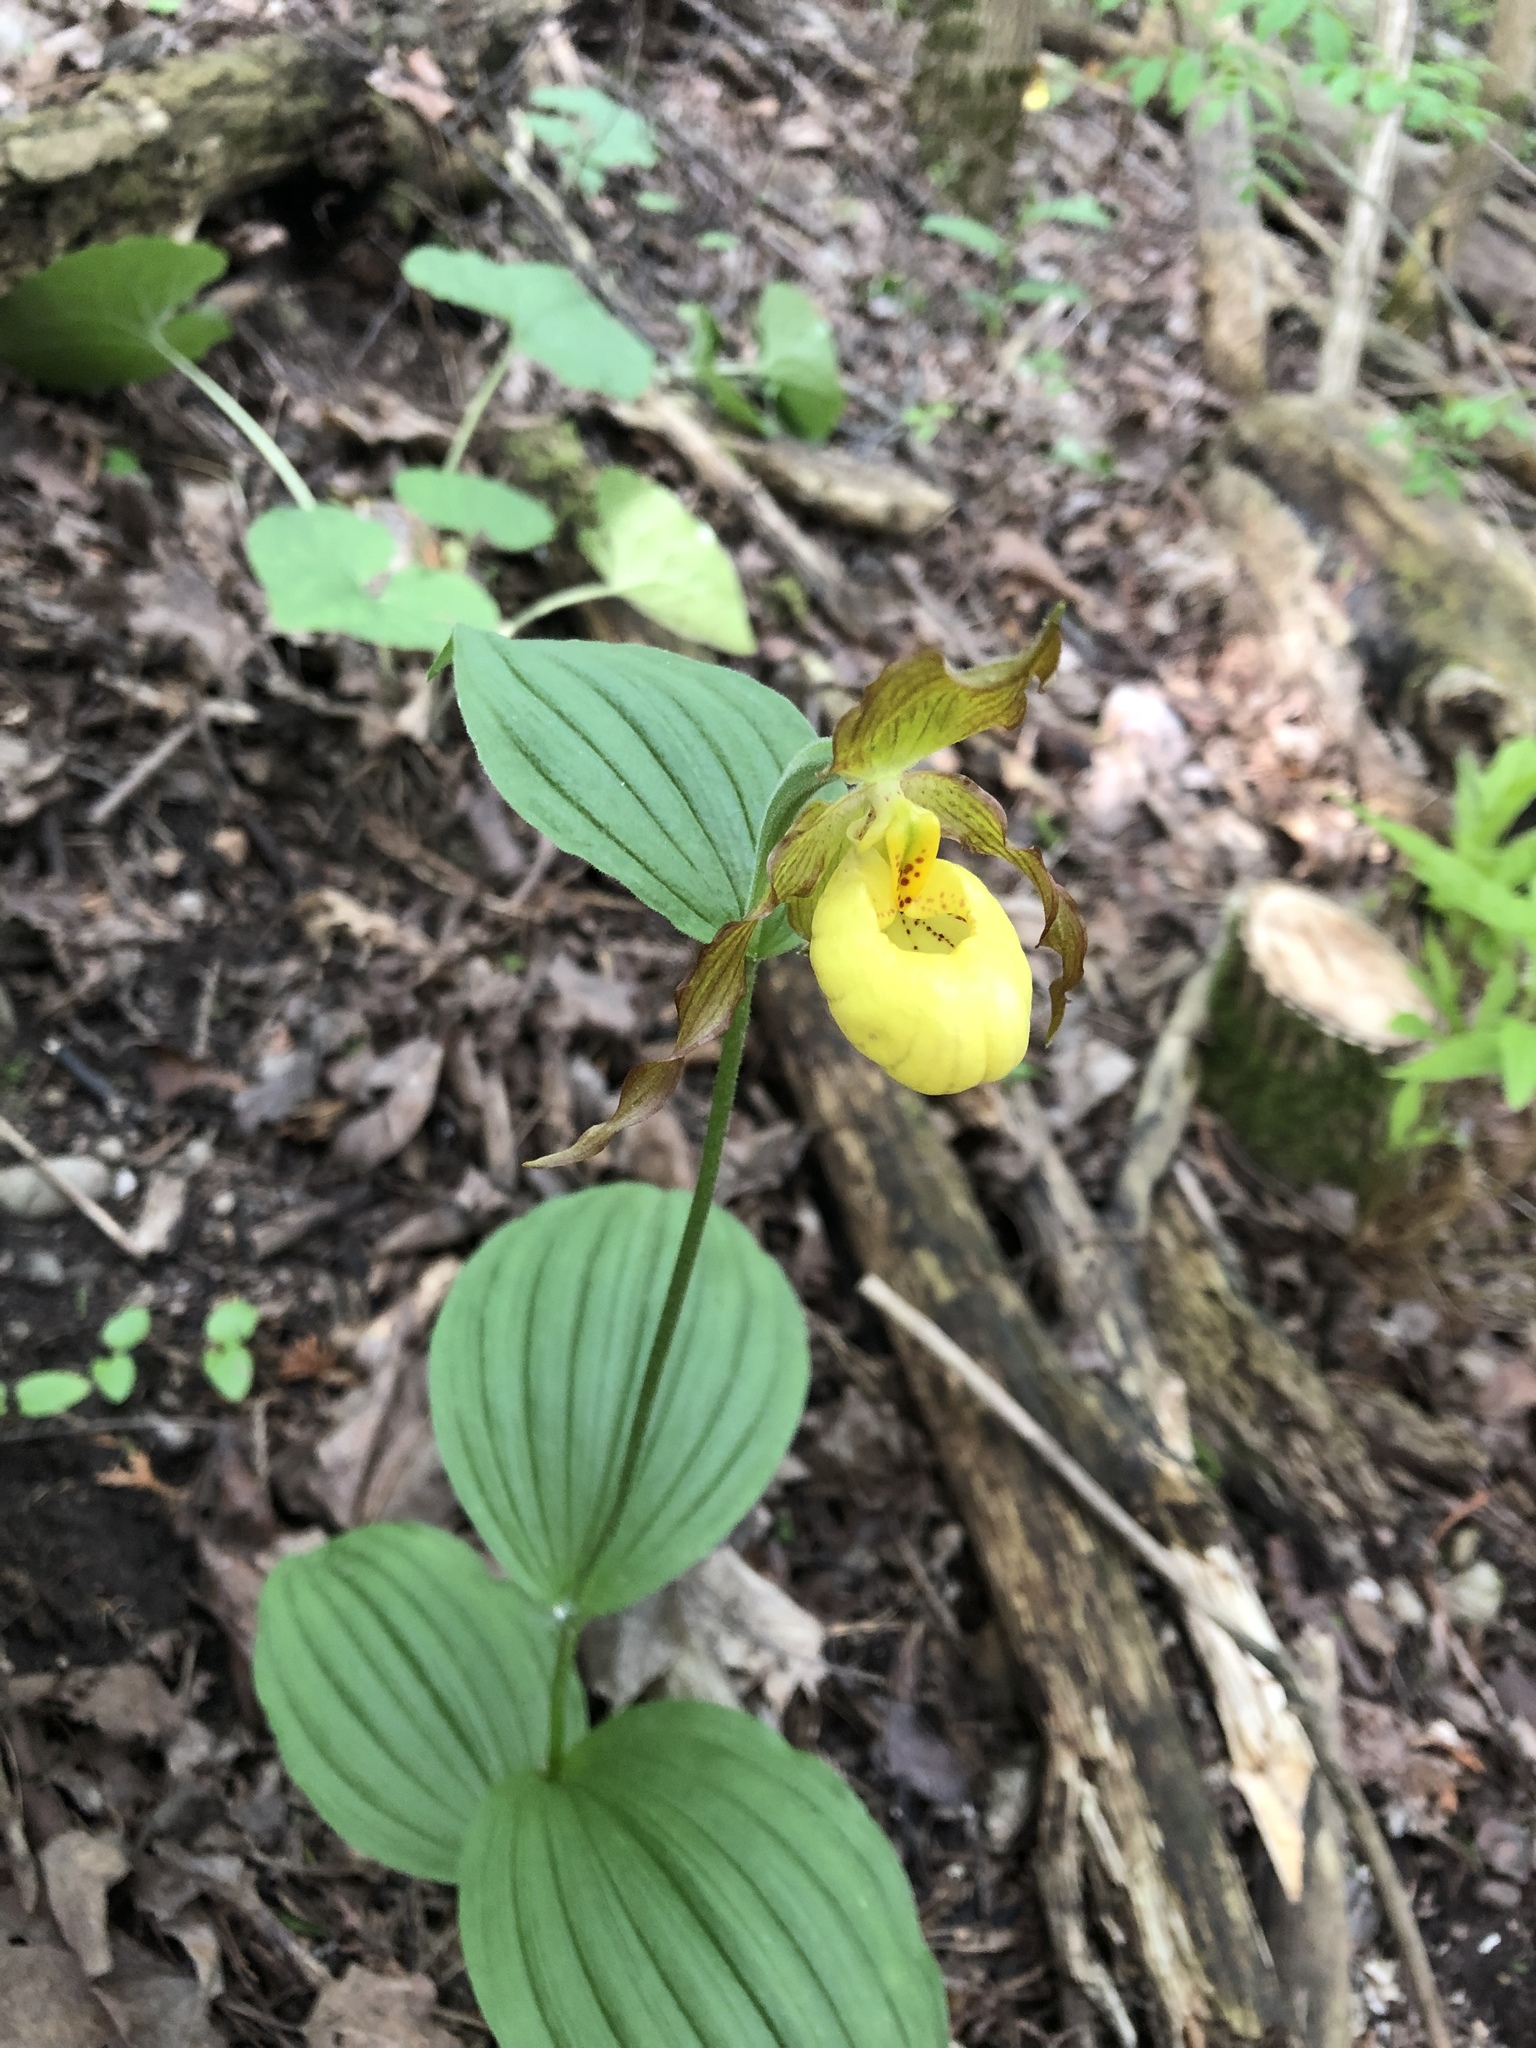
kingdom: Plantae
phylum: Tracheophyta
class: Liliopsida
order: Asparagales
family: Orchidaceae
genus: Cypripedium
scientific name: Cypripedium parviflorum
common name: American yellow lady's-slipper
